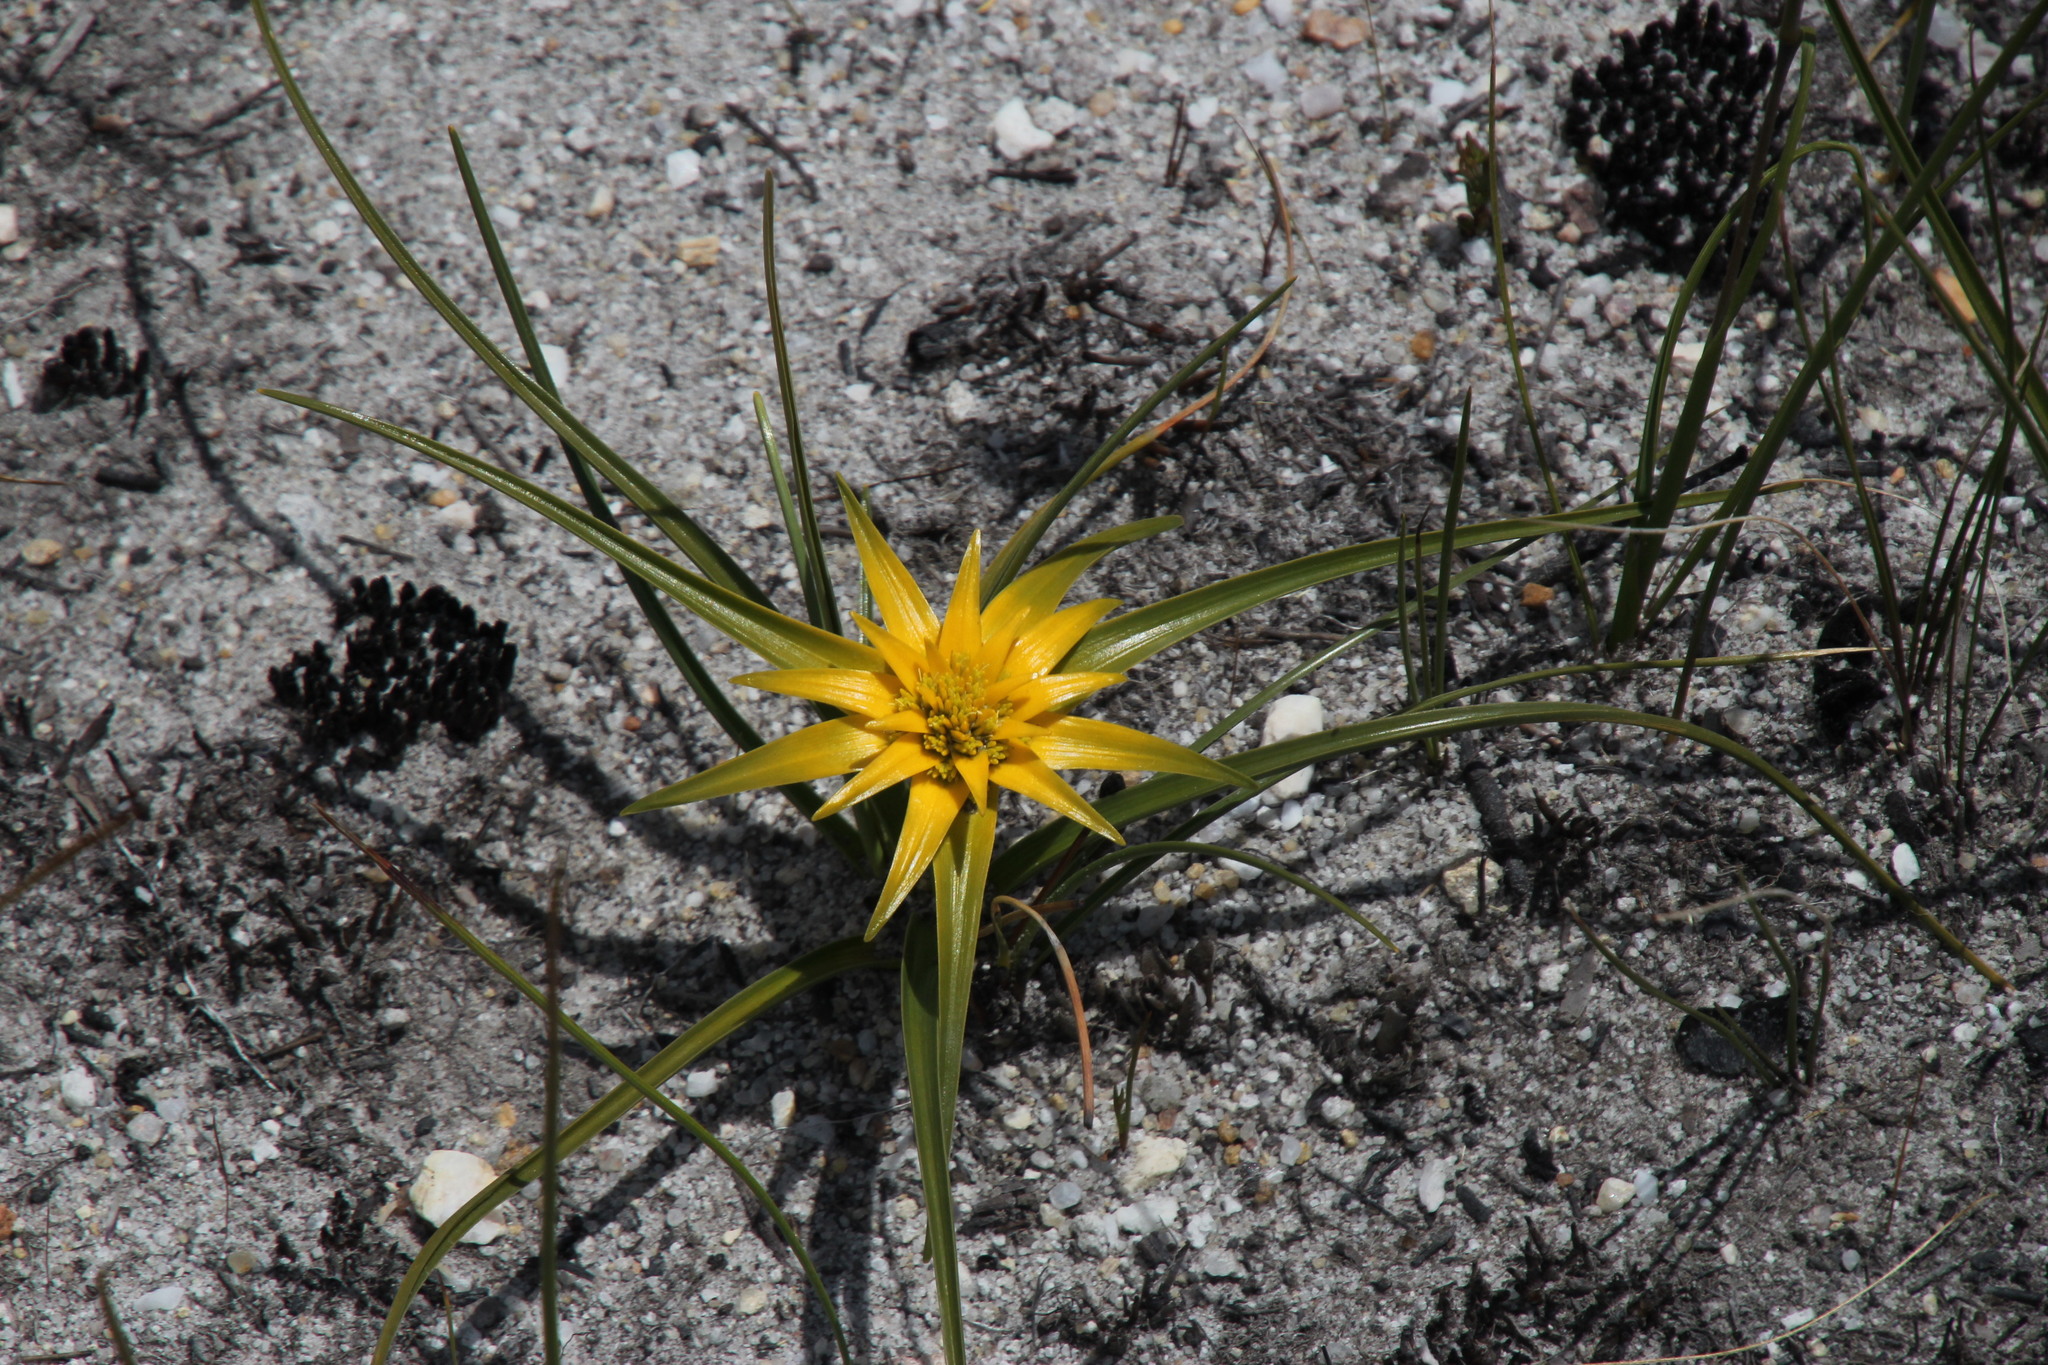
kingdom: Plantae
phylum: Tracheophyta
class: Liliopsida
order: Poales
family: Cyperaceae
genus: Ficinia
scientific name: Ficinia radiata
